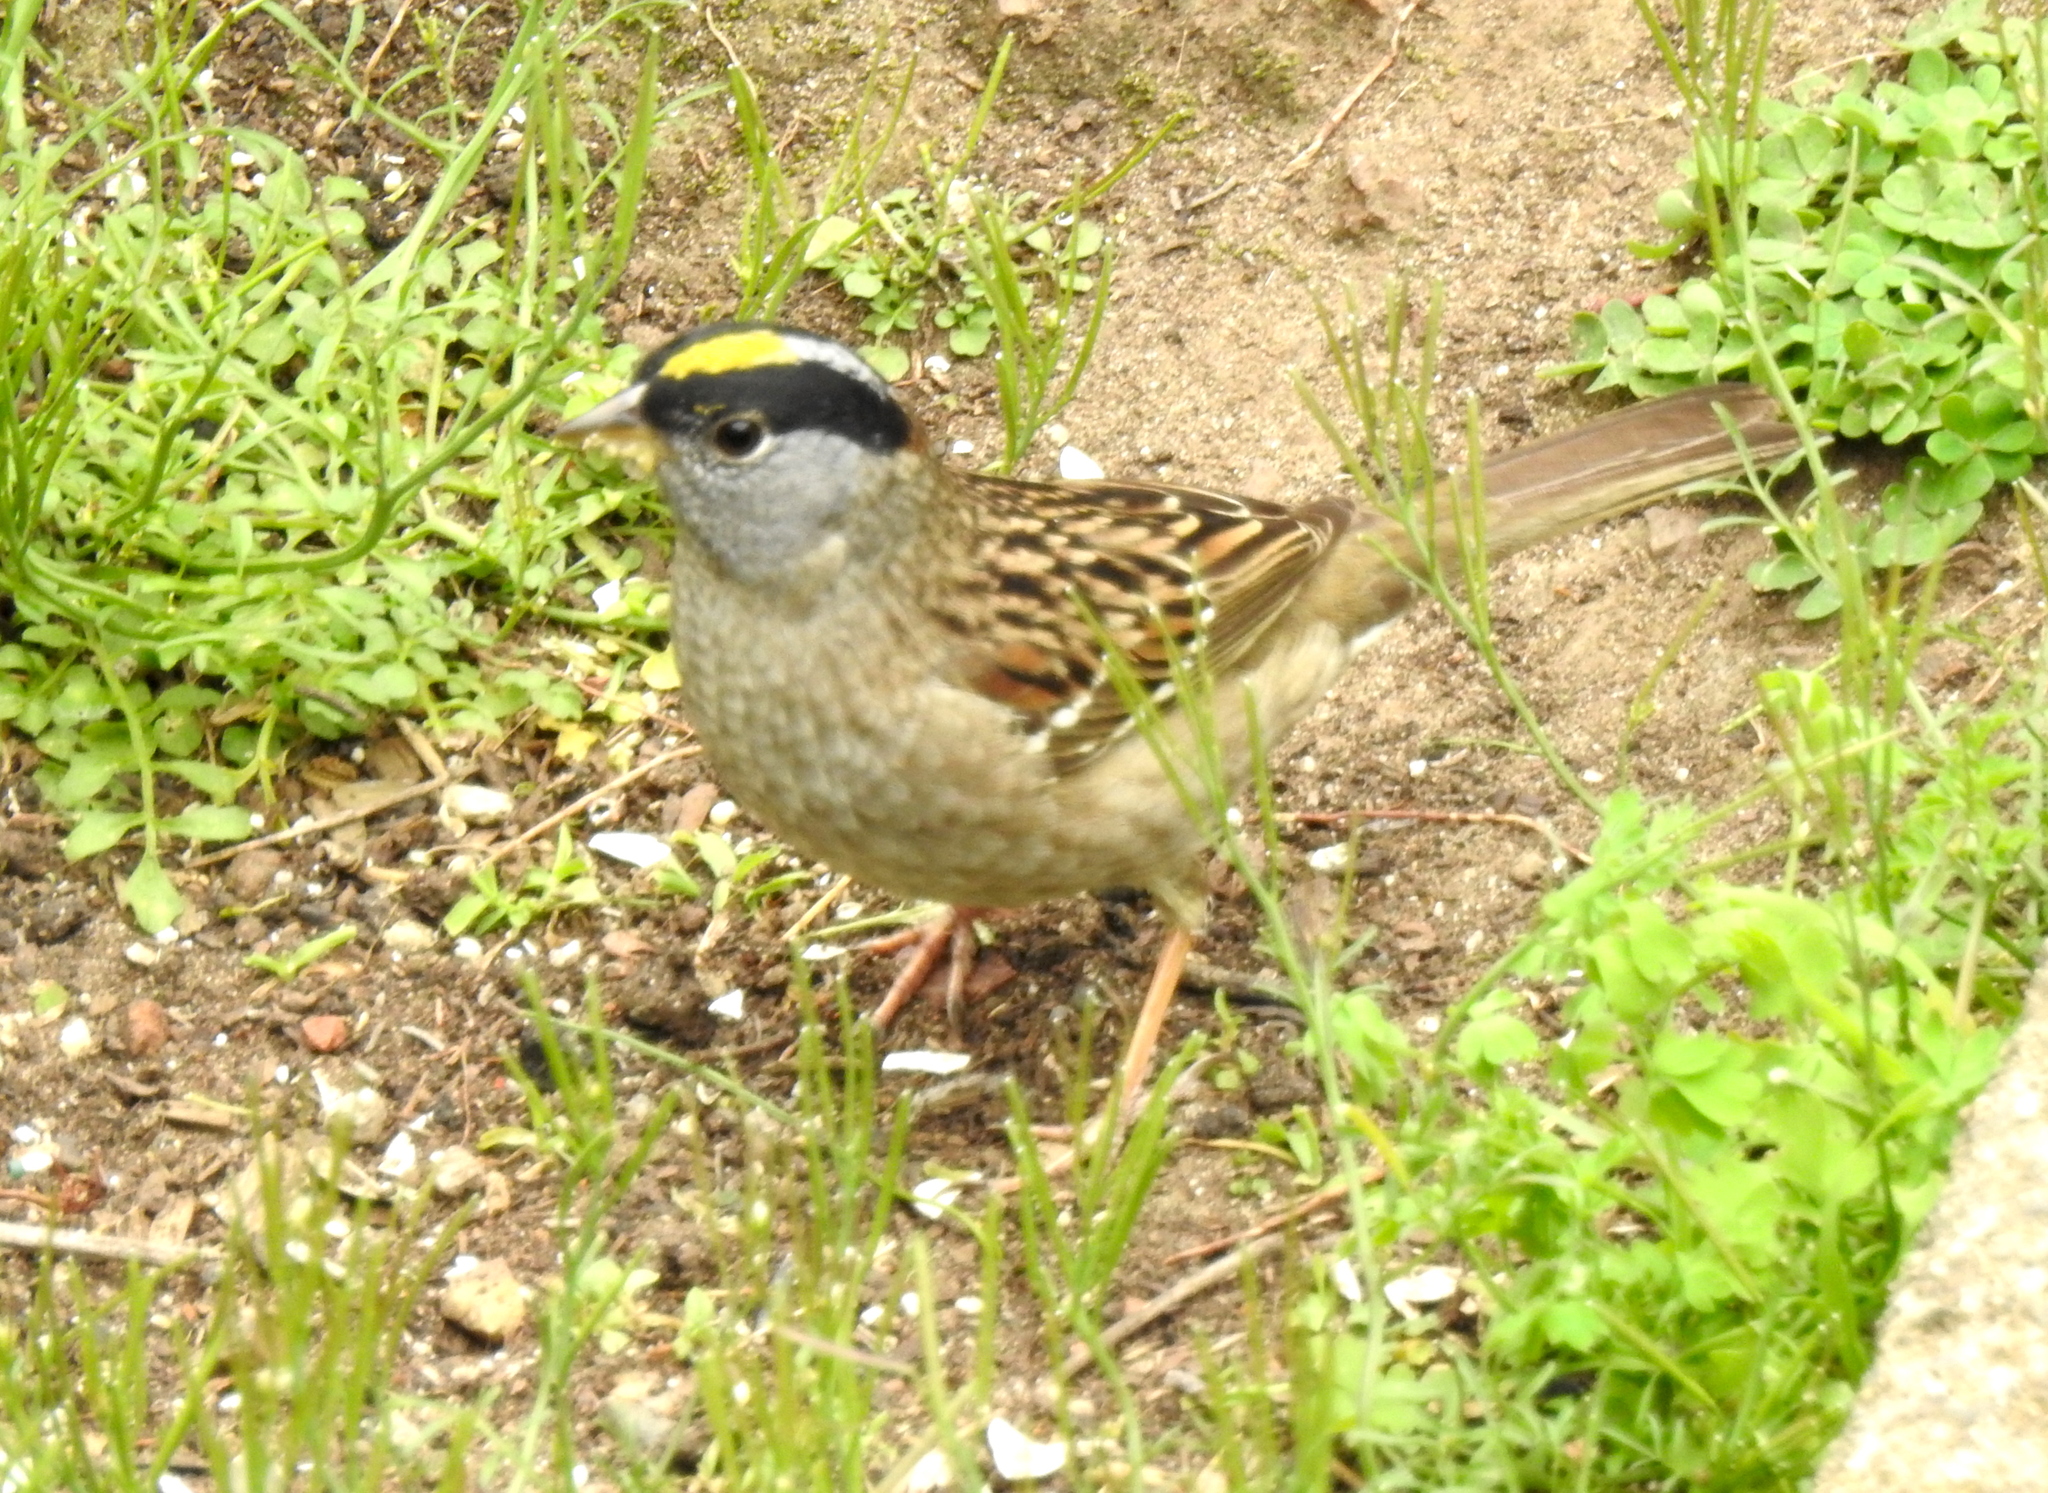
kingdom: Animalia
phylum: Chordata
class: Aves
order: Passeriformes
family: Passerellidae
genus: Zonotrichia
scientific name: Zonotrichia atricapilla
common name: Golden-crowned sparrow
